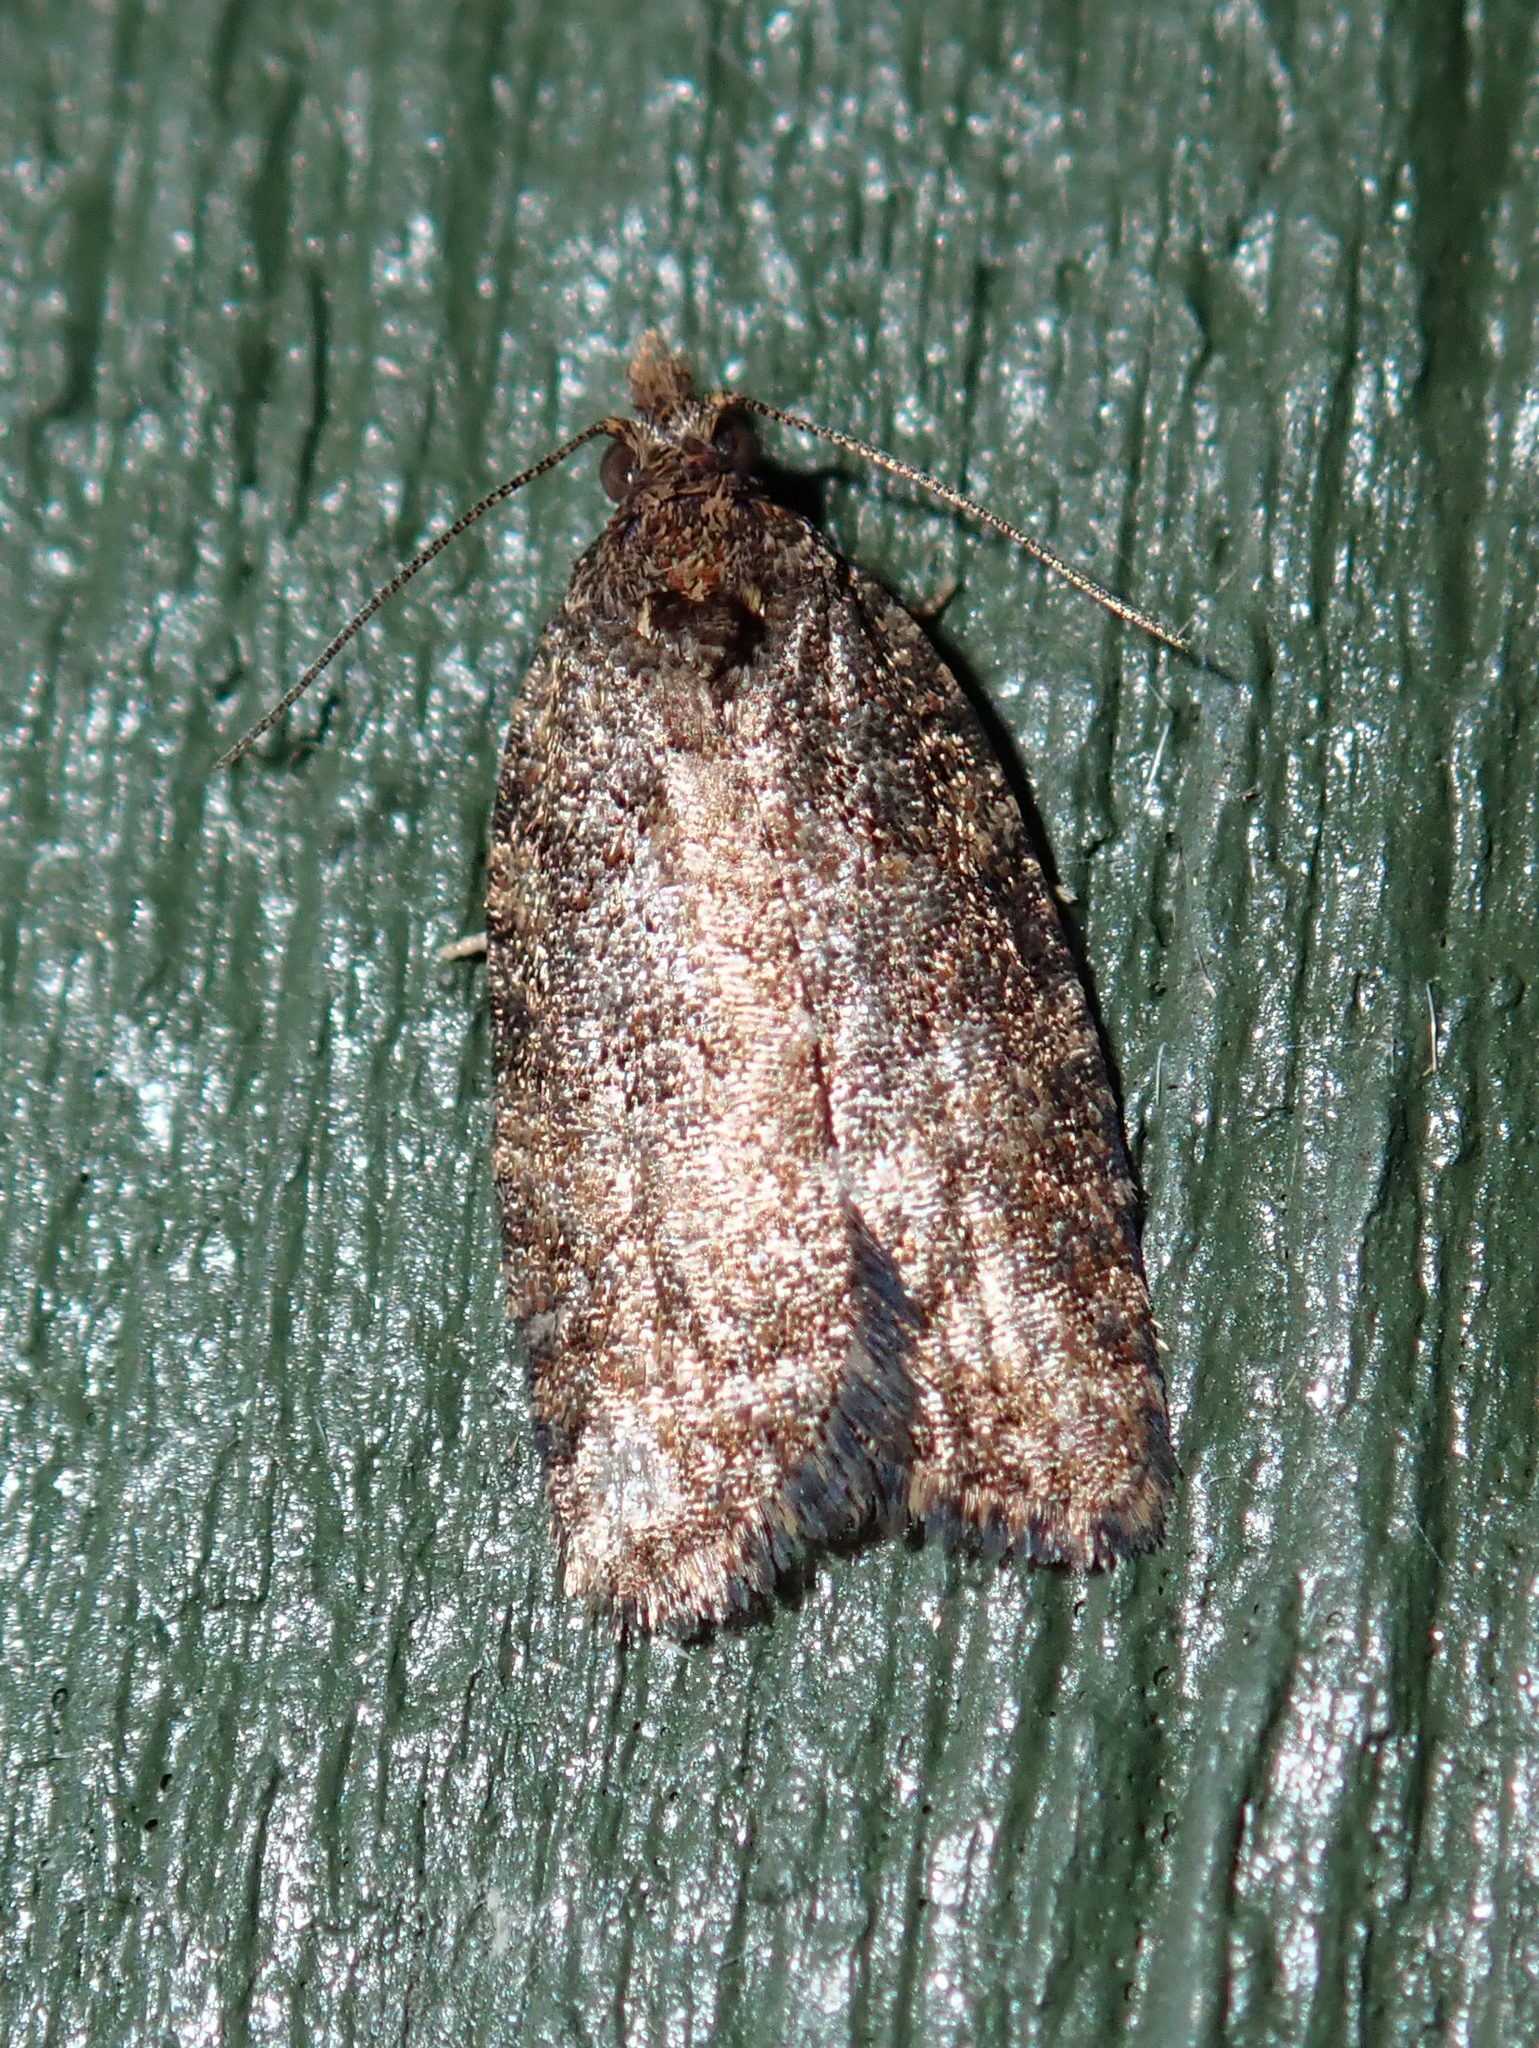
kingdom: Animalia
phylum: Arthropoda
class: Insecta
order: Lepidoptera
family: Tortricidae
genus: Capua
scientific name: Capua intractana
